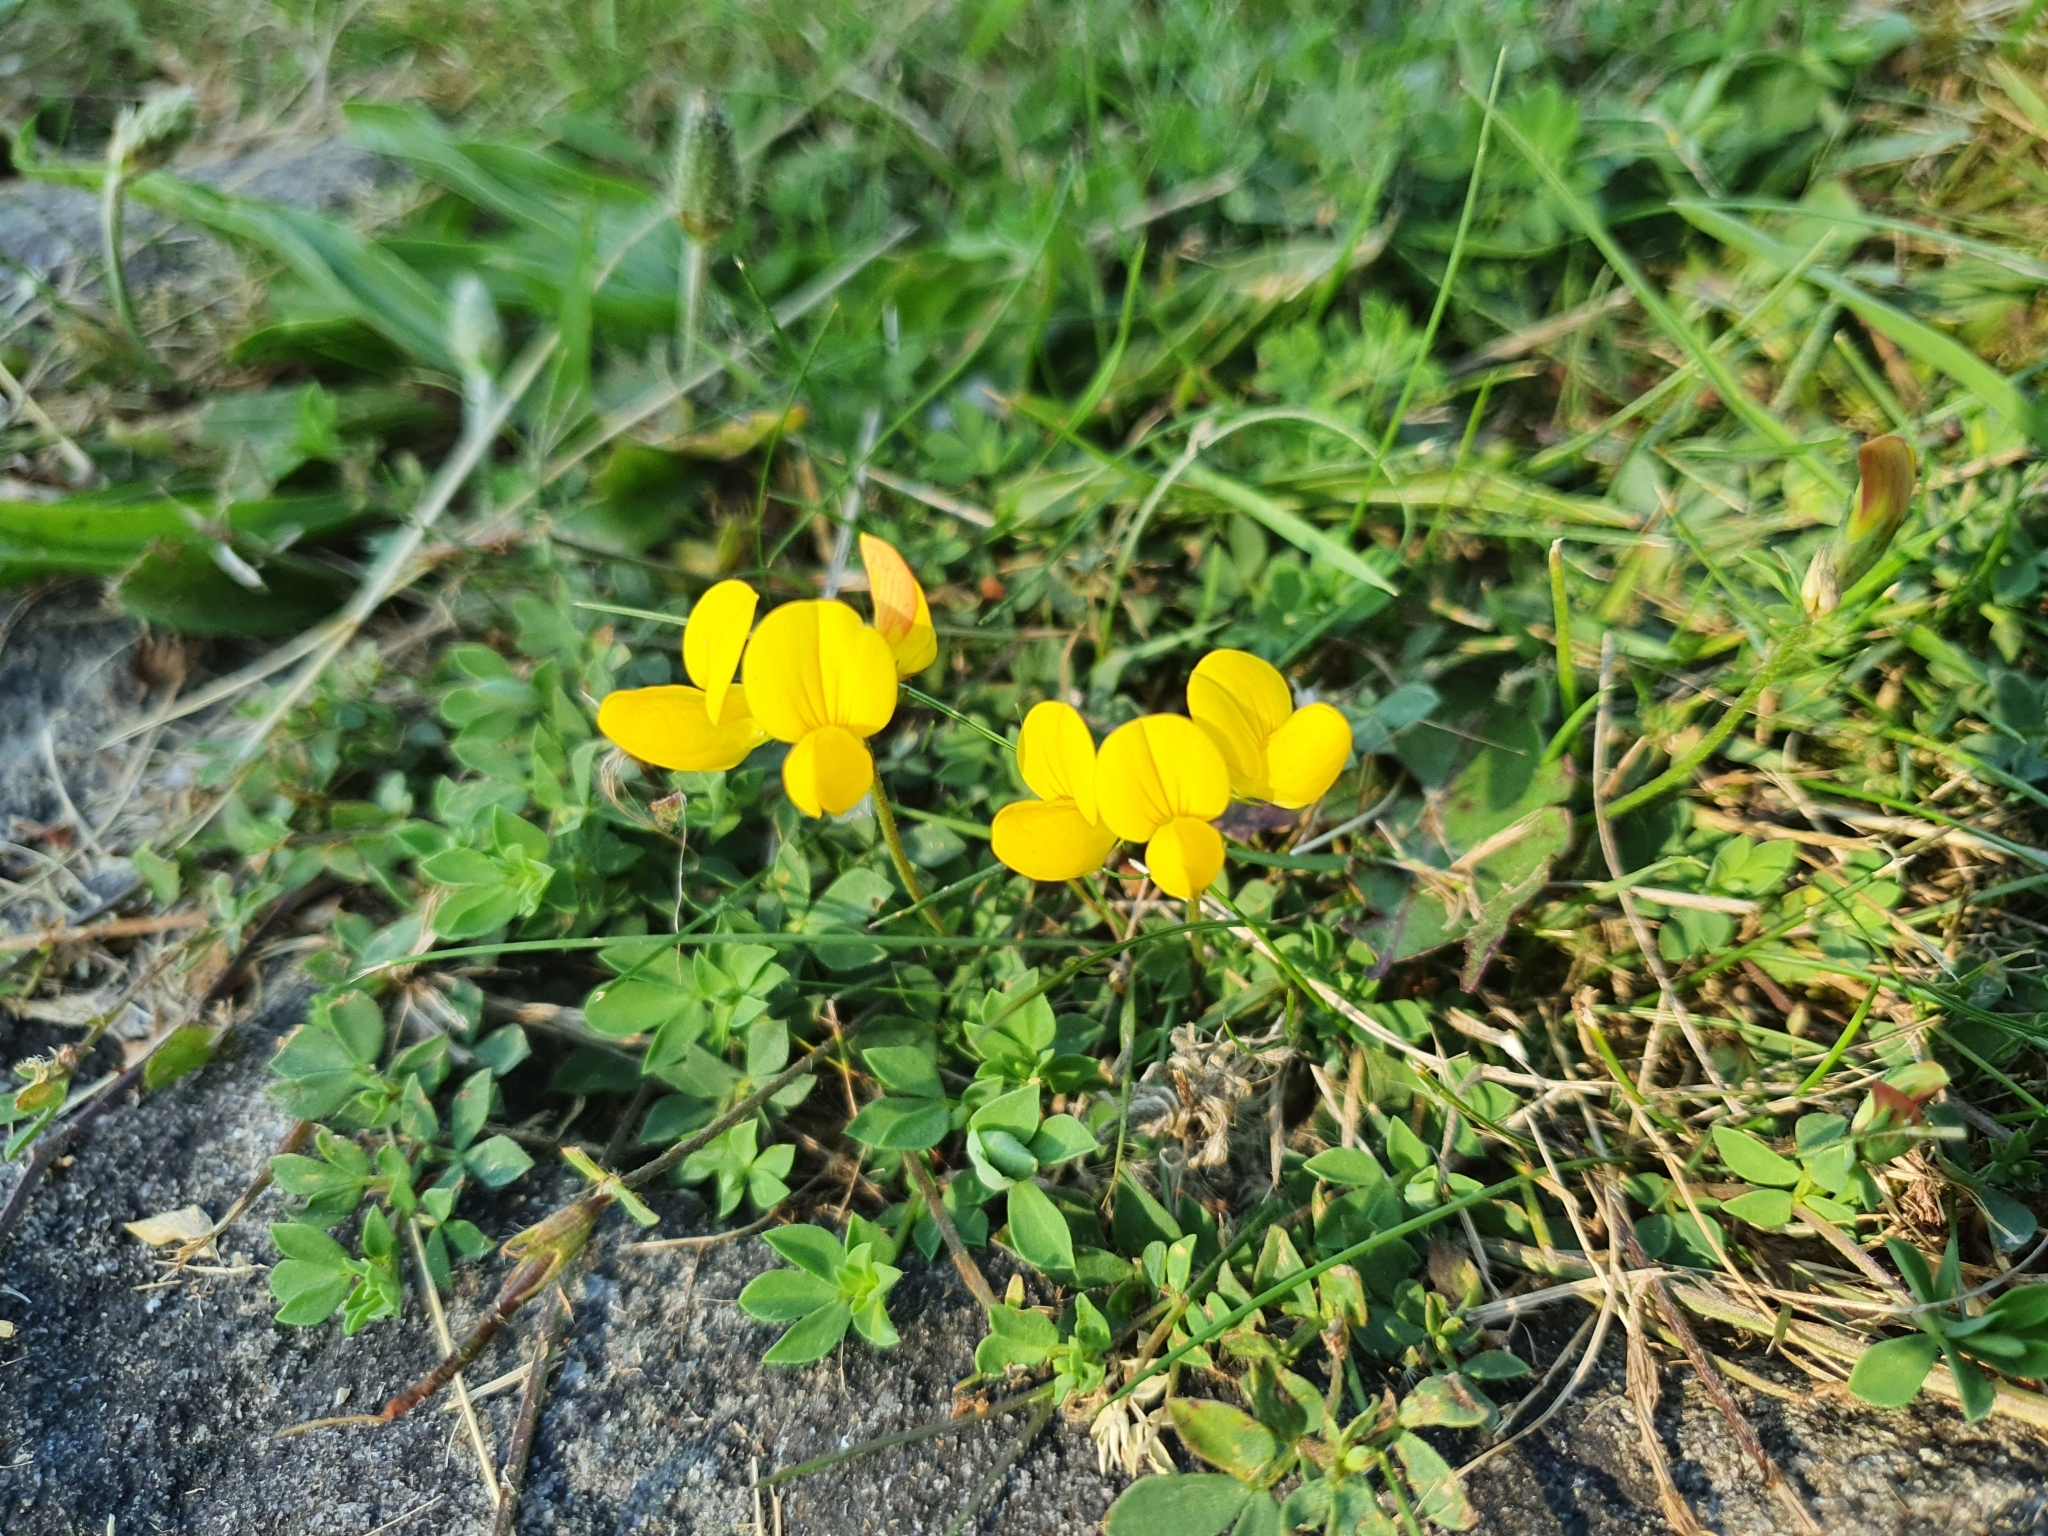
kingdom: Plantae
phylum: Tracheophyta
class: Magnoliopsida
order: Fabales
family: Fabaceae
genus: Lotus
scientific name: Lotus corniculatus
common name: Common bird's-foot-trefoil
